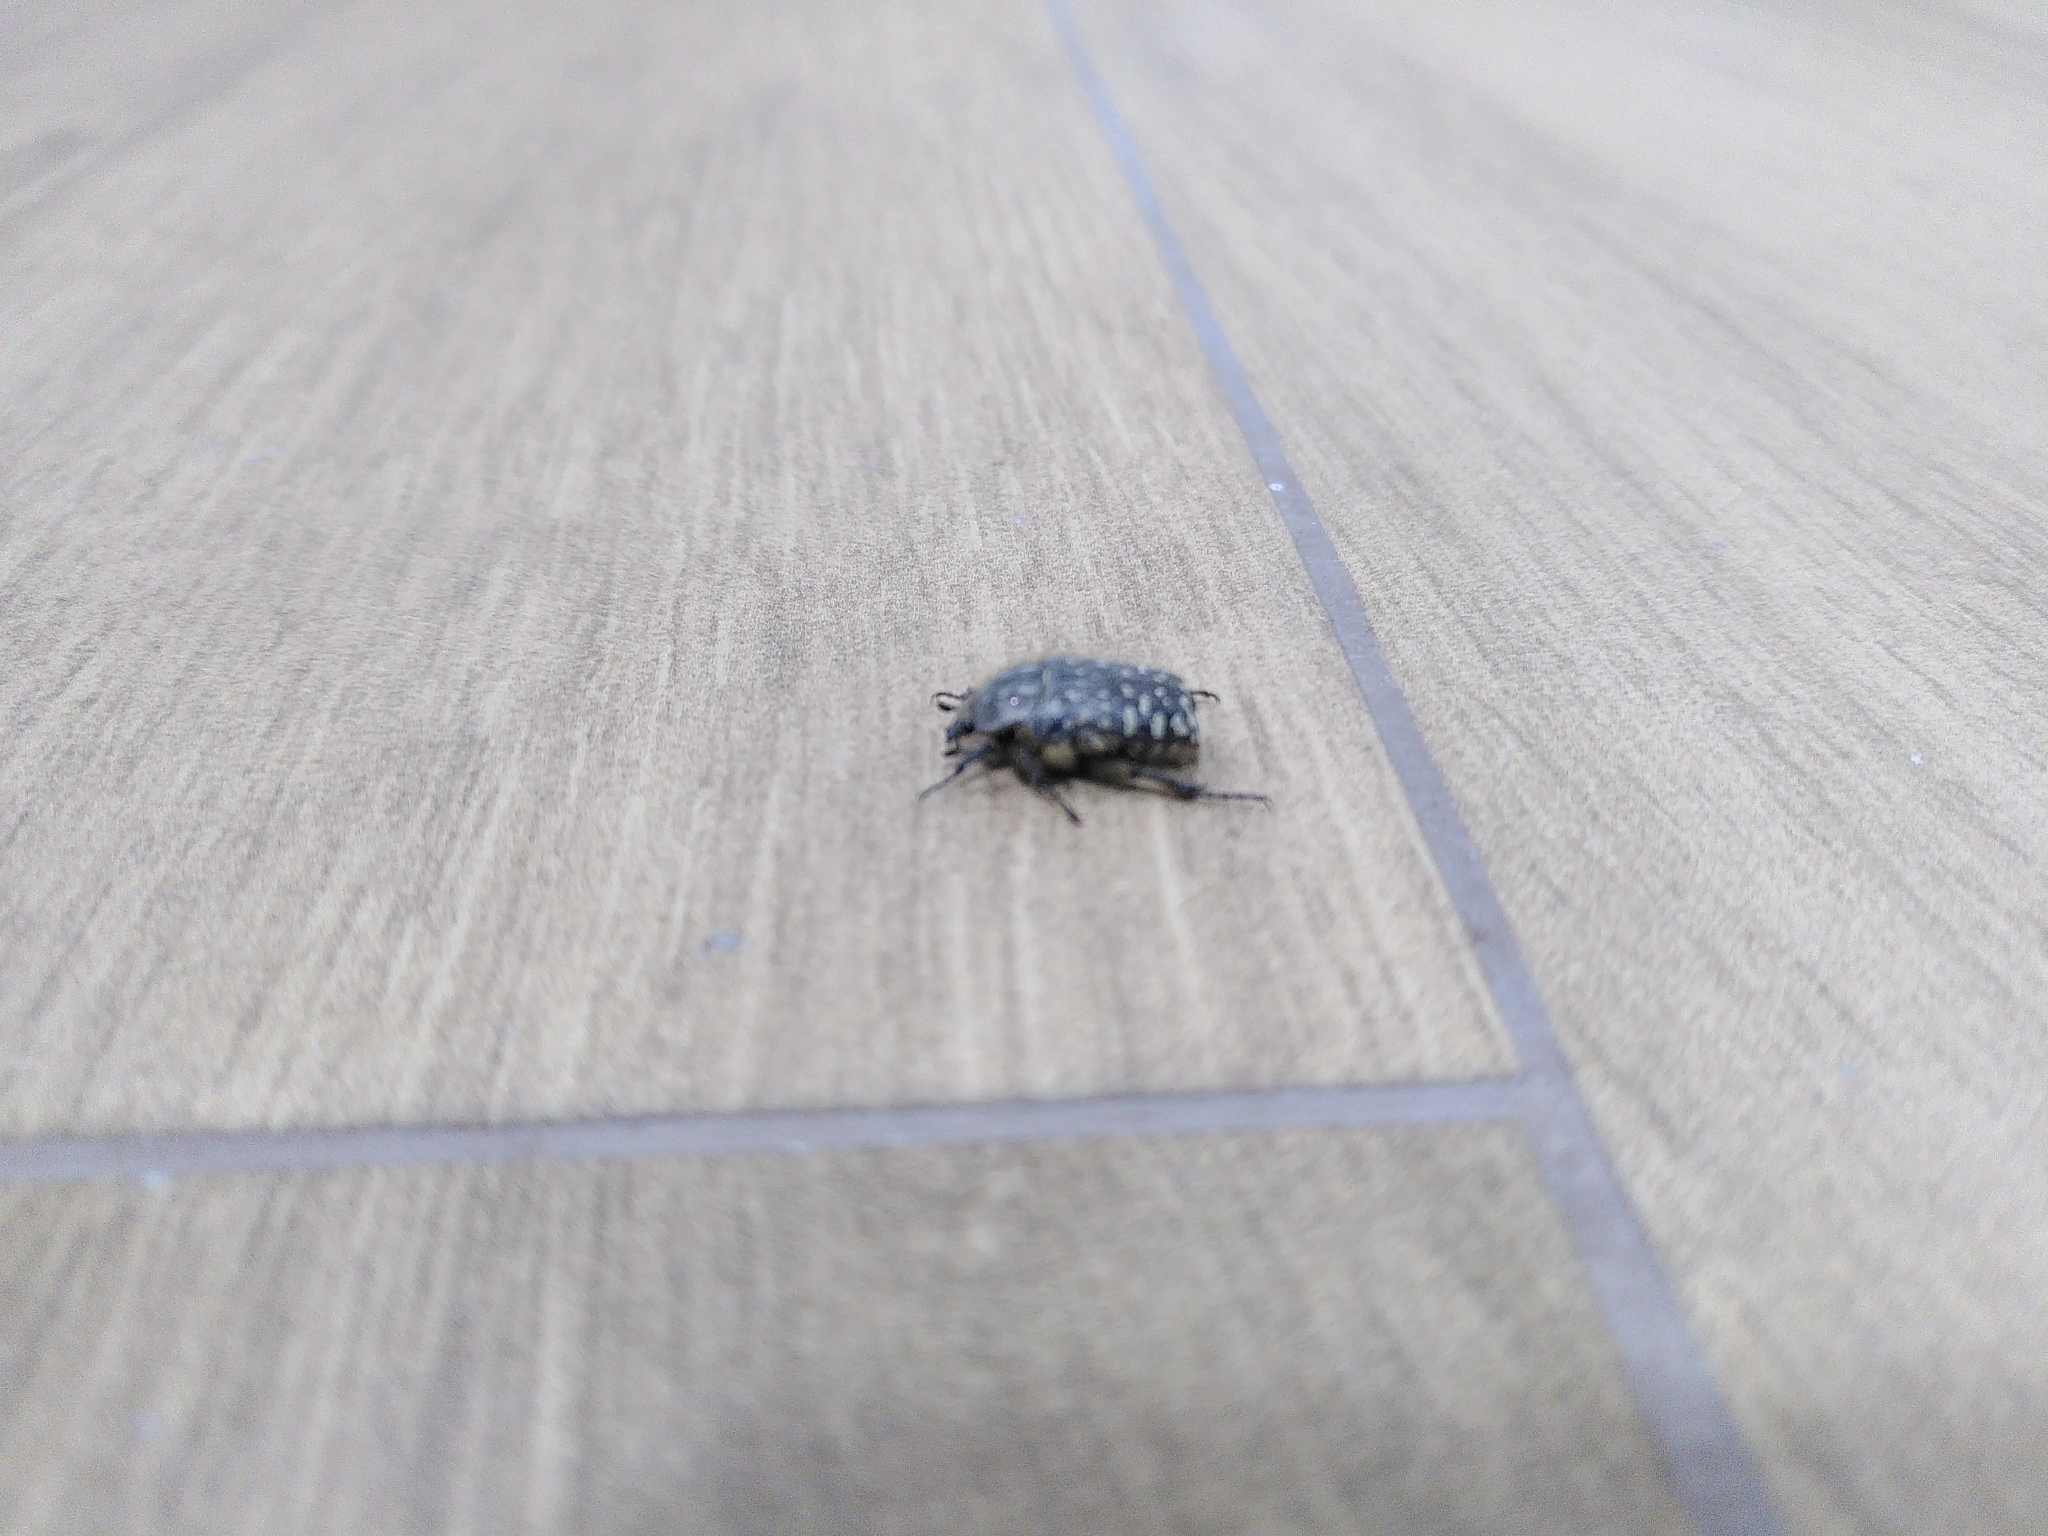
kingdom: Animalia
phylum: Arthropoda
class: Insecta
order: Coleoptera
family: Scarabaeidae
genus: Oxythyrea
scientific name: Oxythyrea funesta
